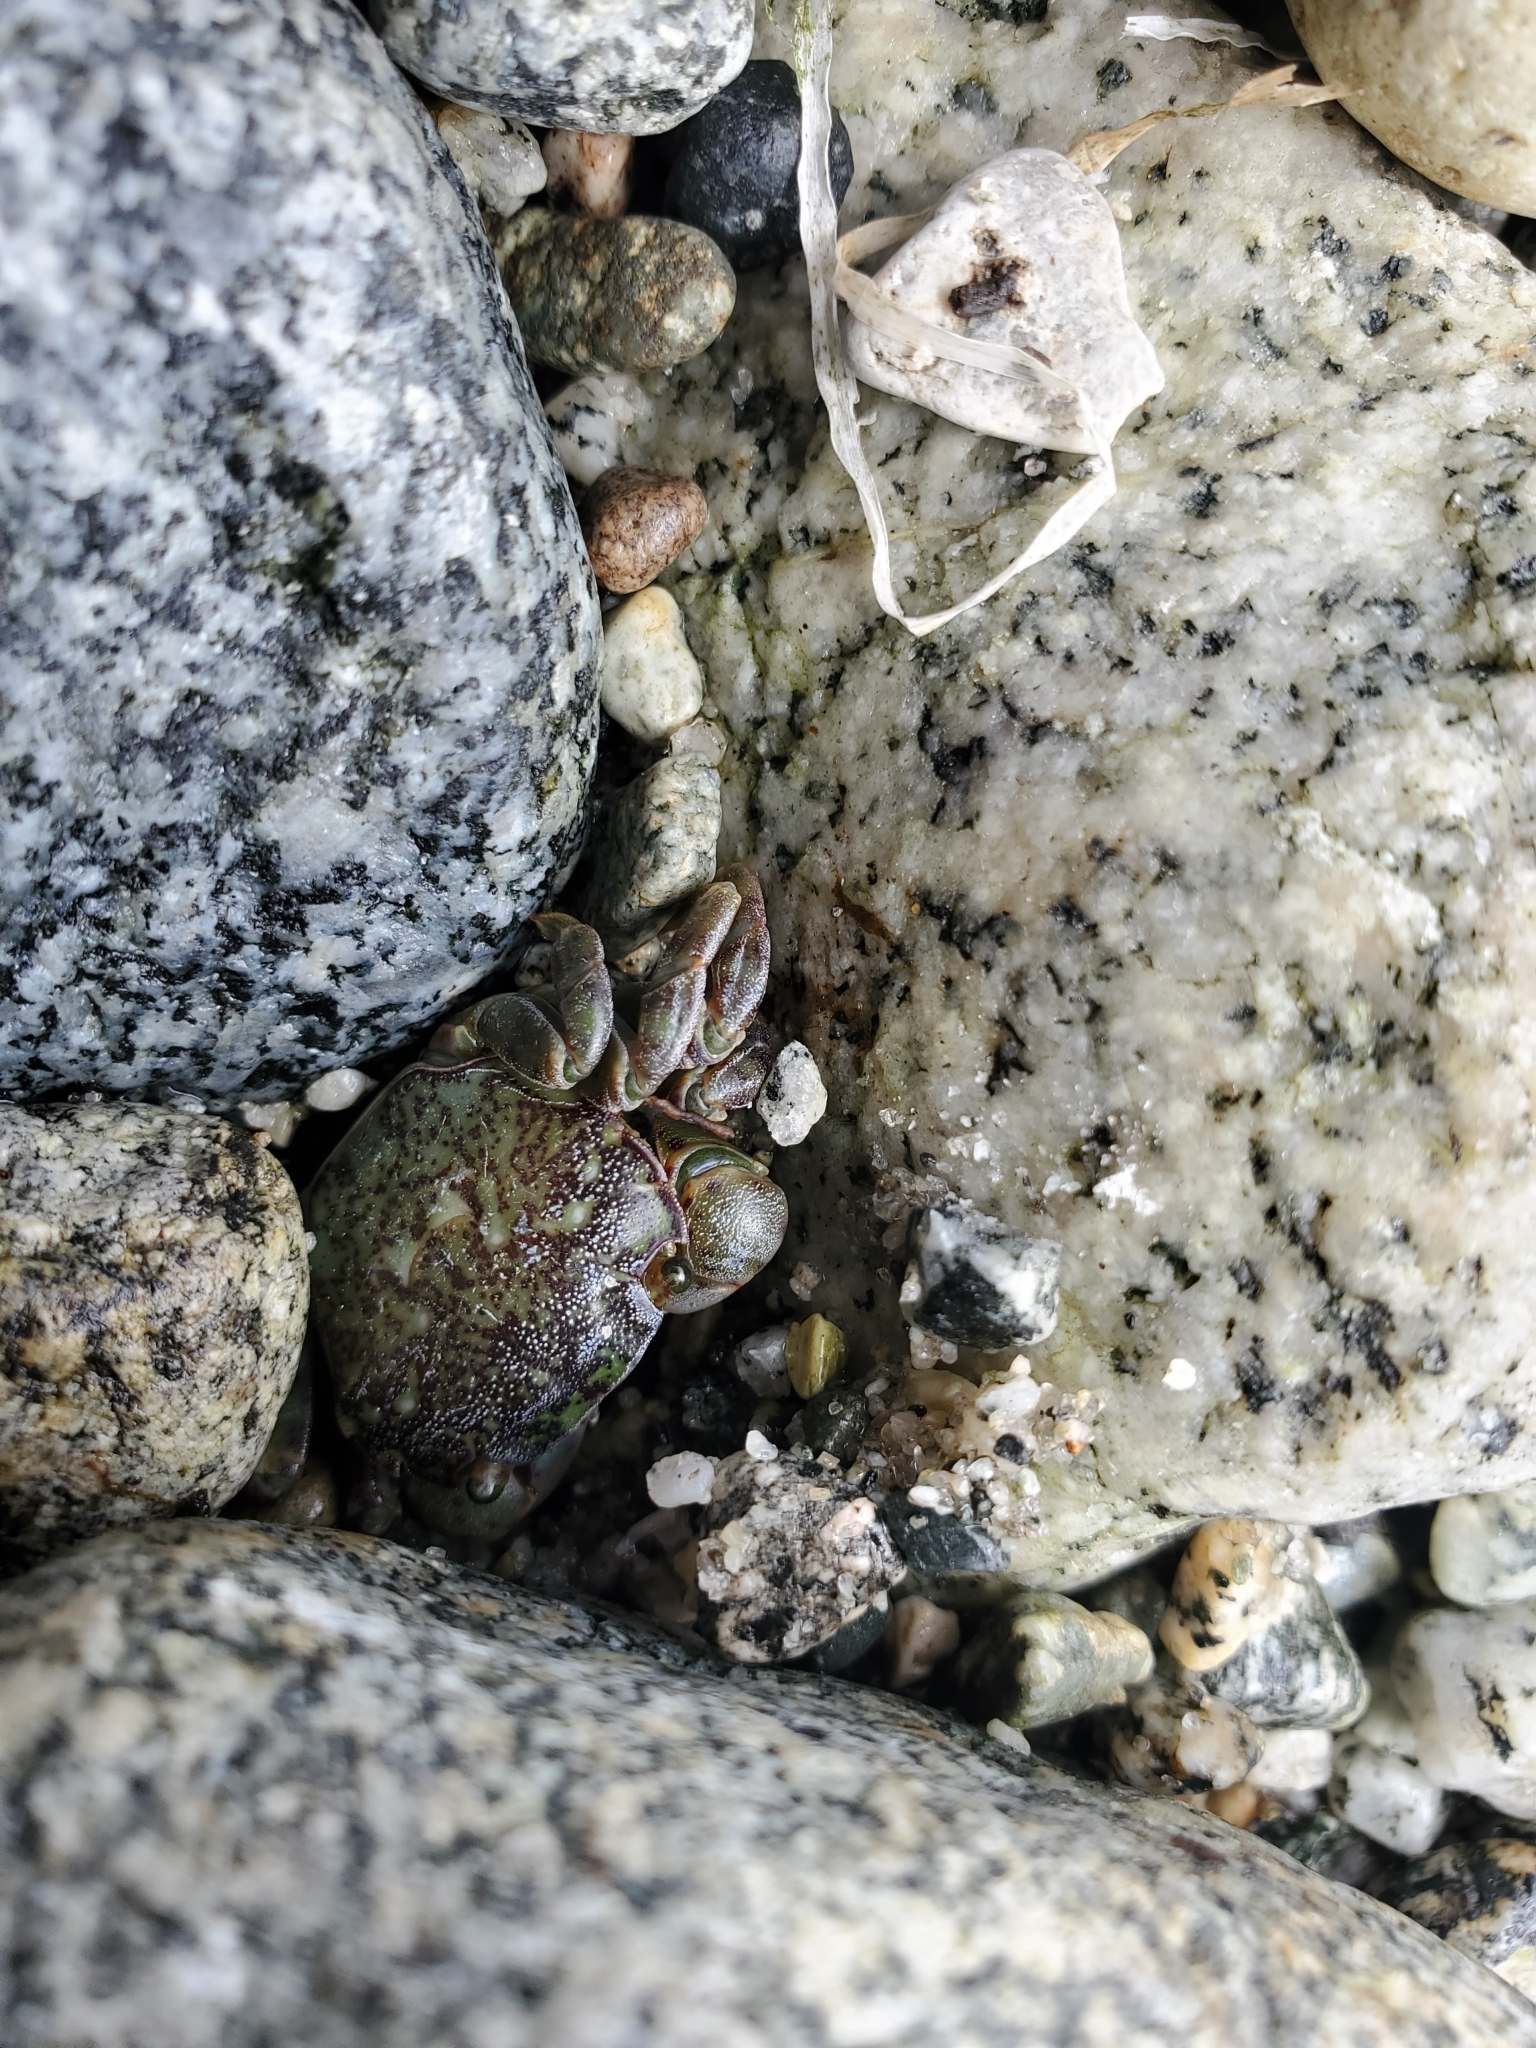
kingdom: Animalia
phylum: Arthropoda
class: Malacostraca
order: Decapoda
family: Varunidae
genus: Hemigrapsus
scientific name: Hemigrapsus nudus
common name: Purple shore crab
